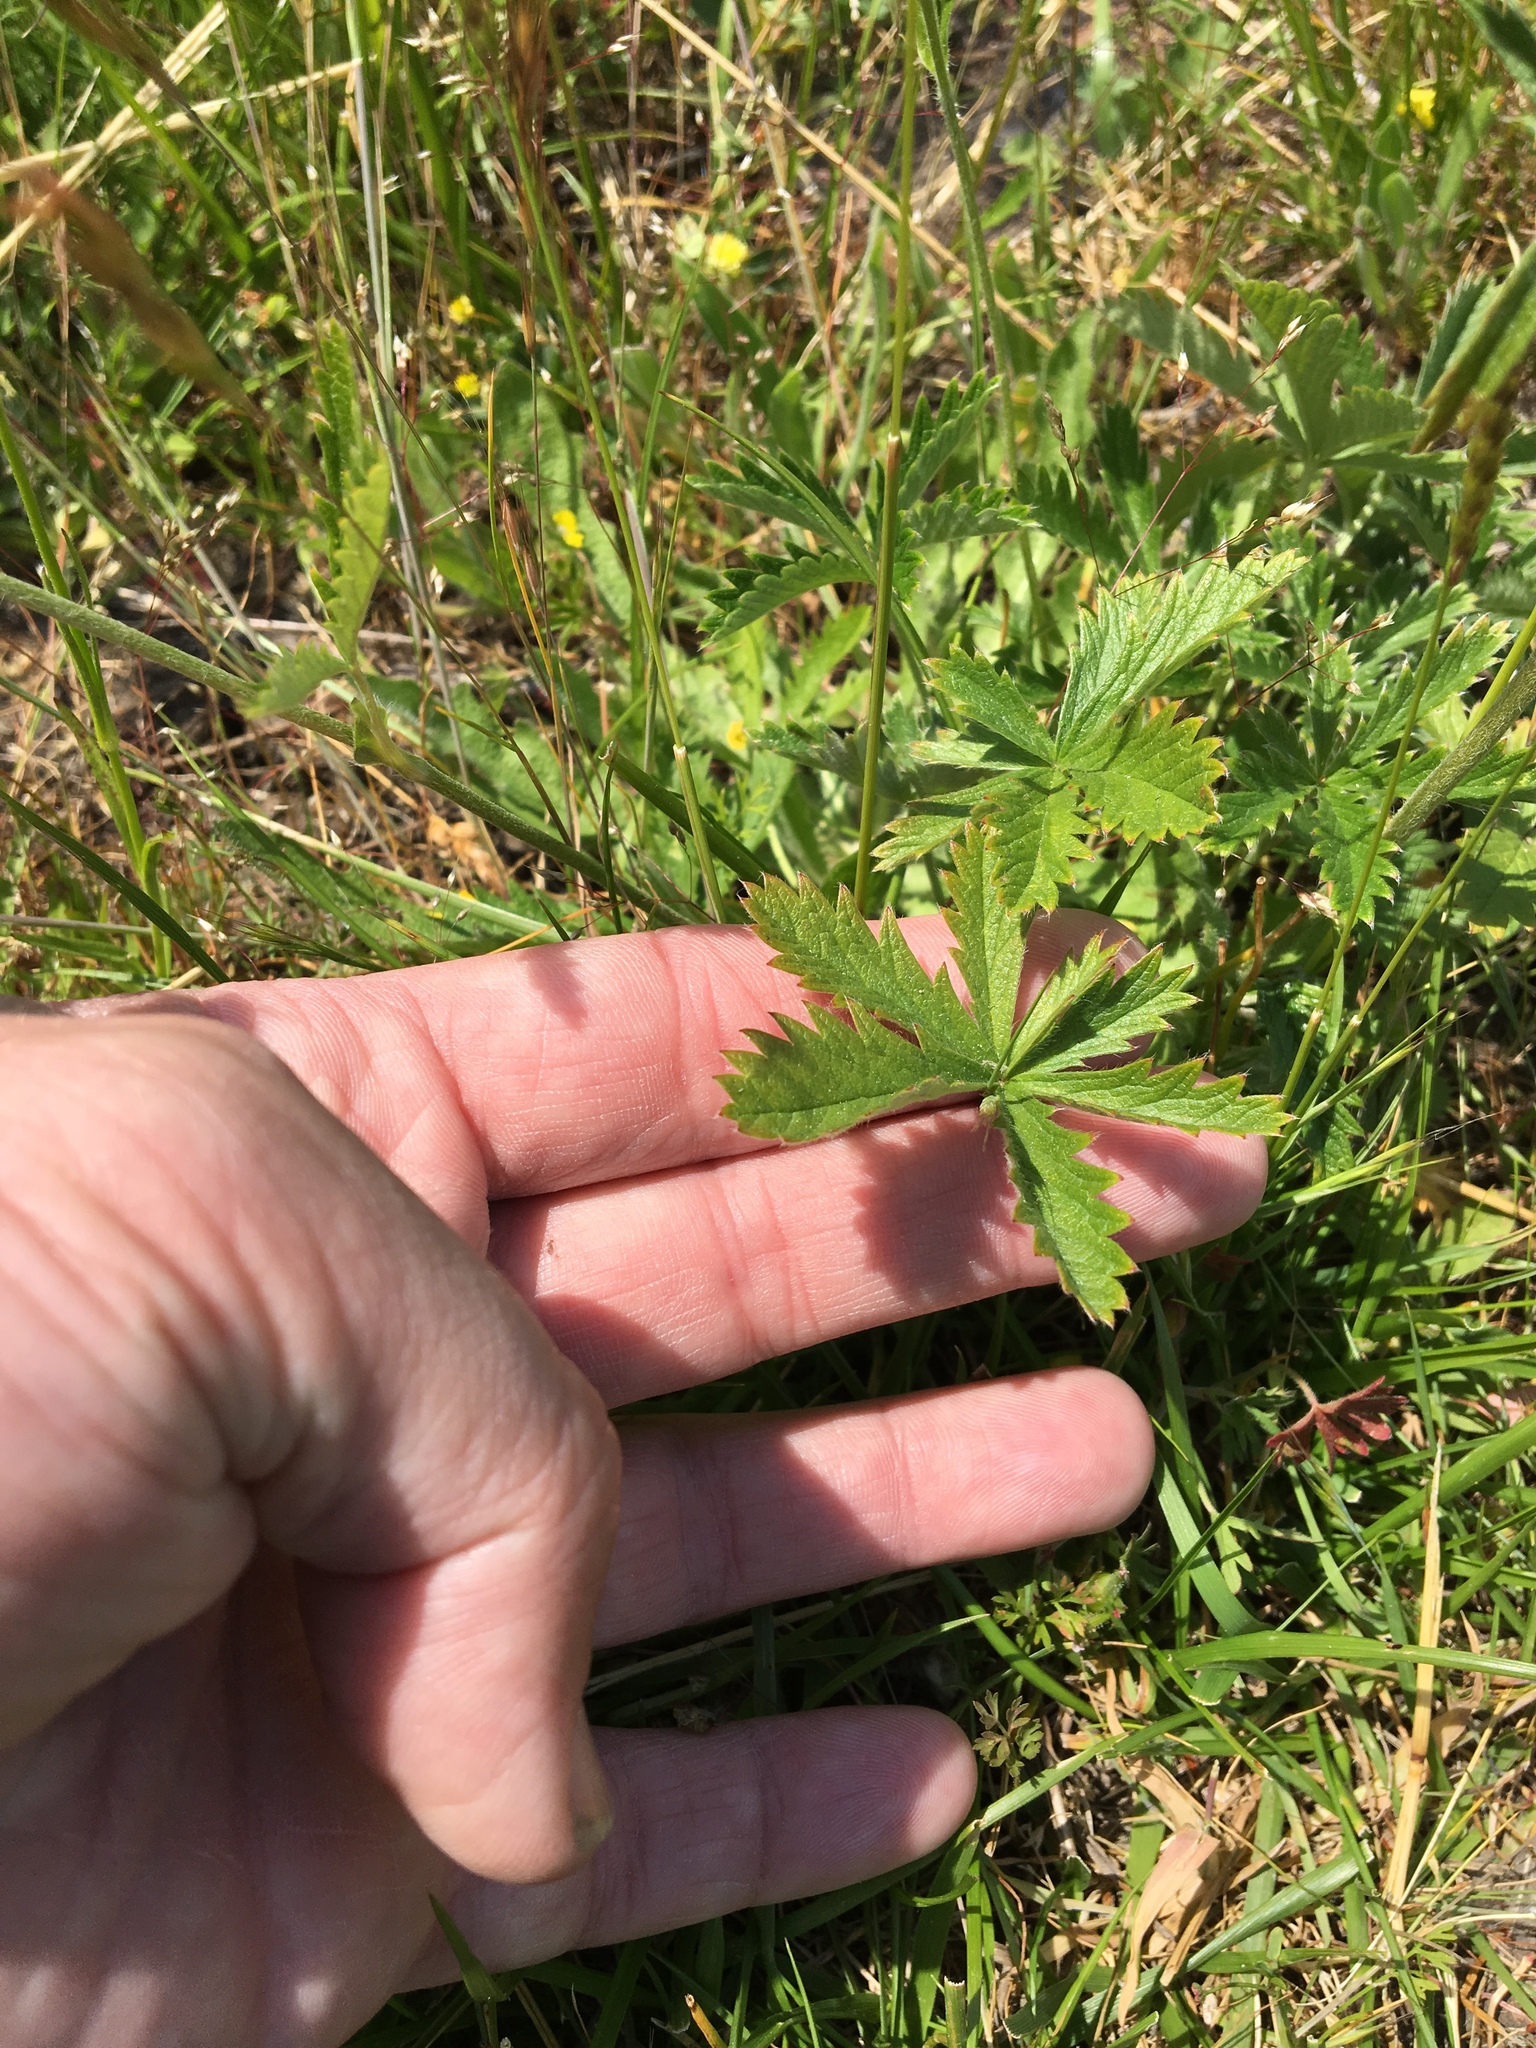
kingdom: Plantae
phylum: Tracheophyta
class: Magnoliopsida
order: Rosales
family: Rosaceae
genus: Potentilla
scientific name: Potentilla gracilis
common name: Graceful cinquefoil
